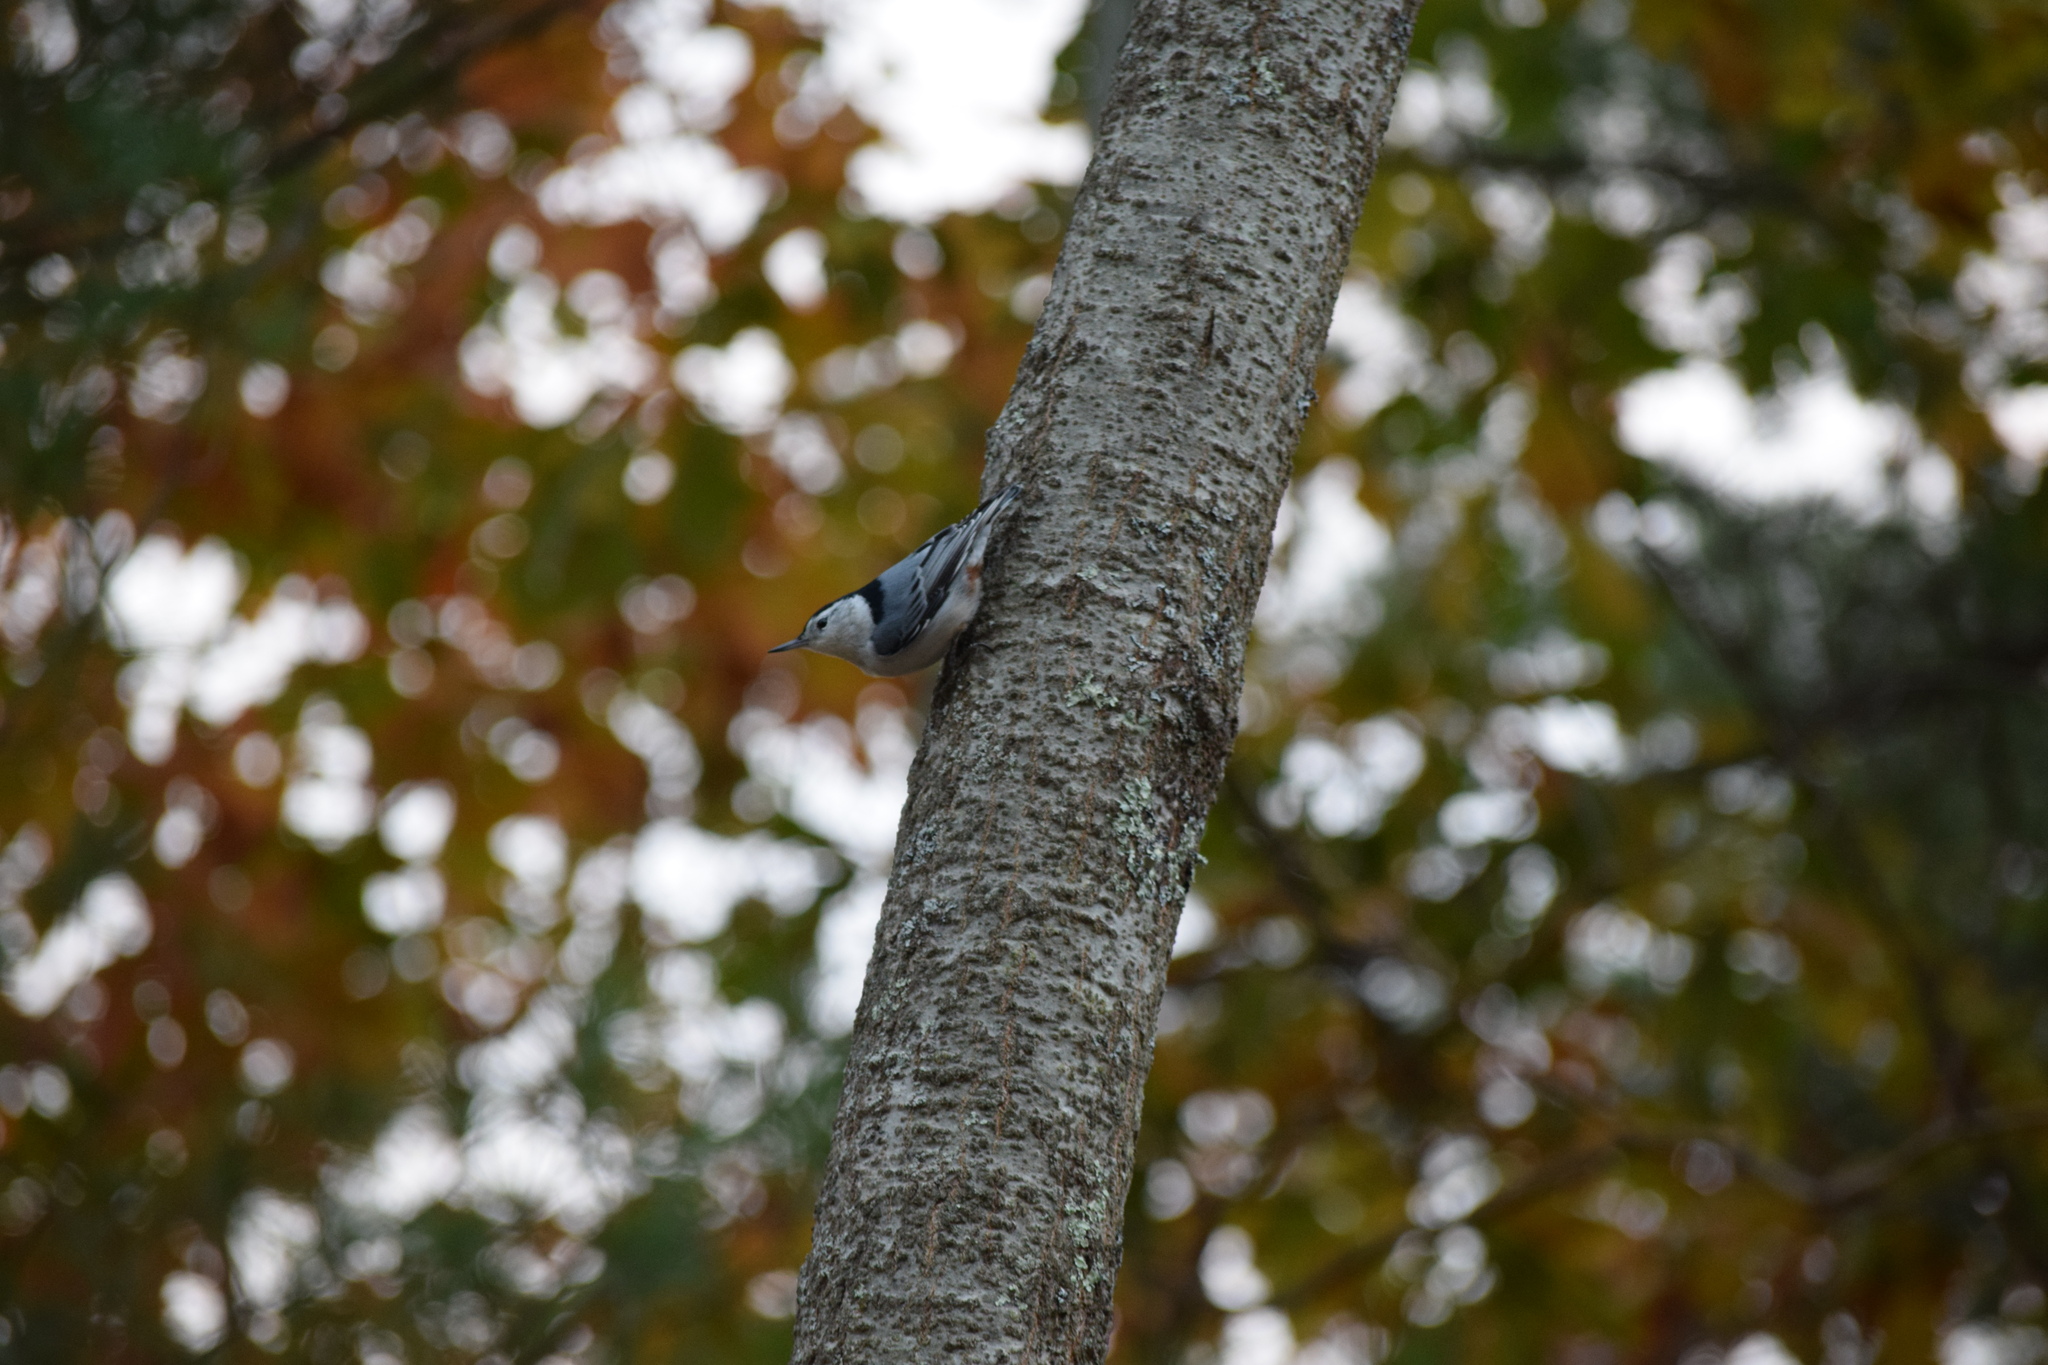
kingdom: Animalia
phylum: Chordata
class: Aves
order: Passeriformes
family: Sittidae
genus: Sitta
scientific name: Sitta carolinensis
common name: White-breasted nuthatch
